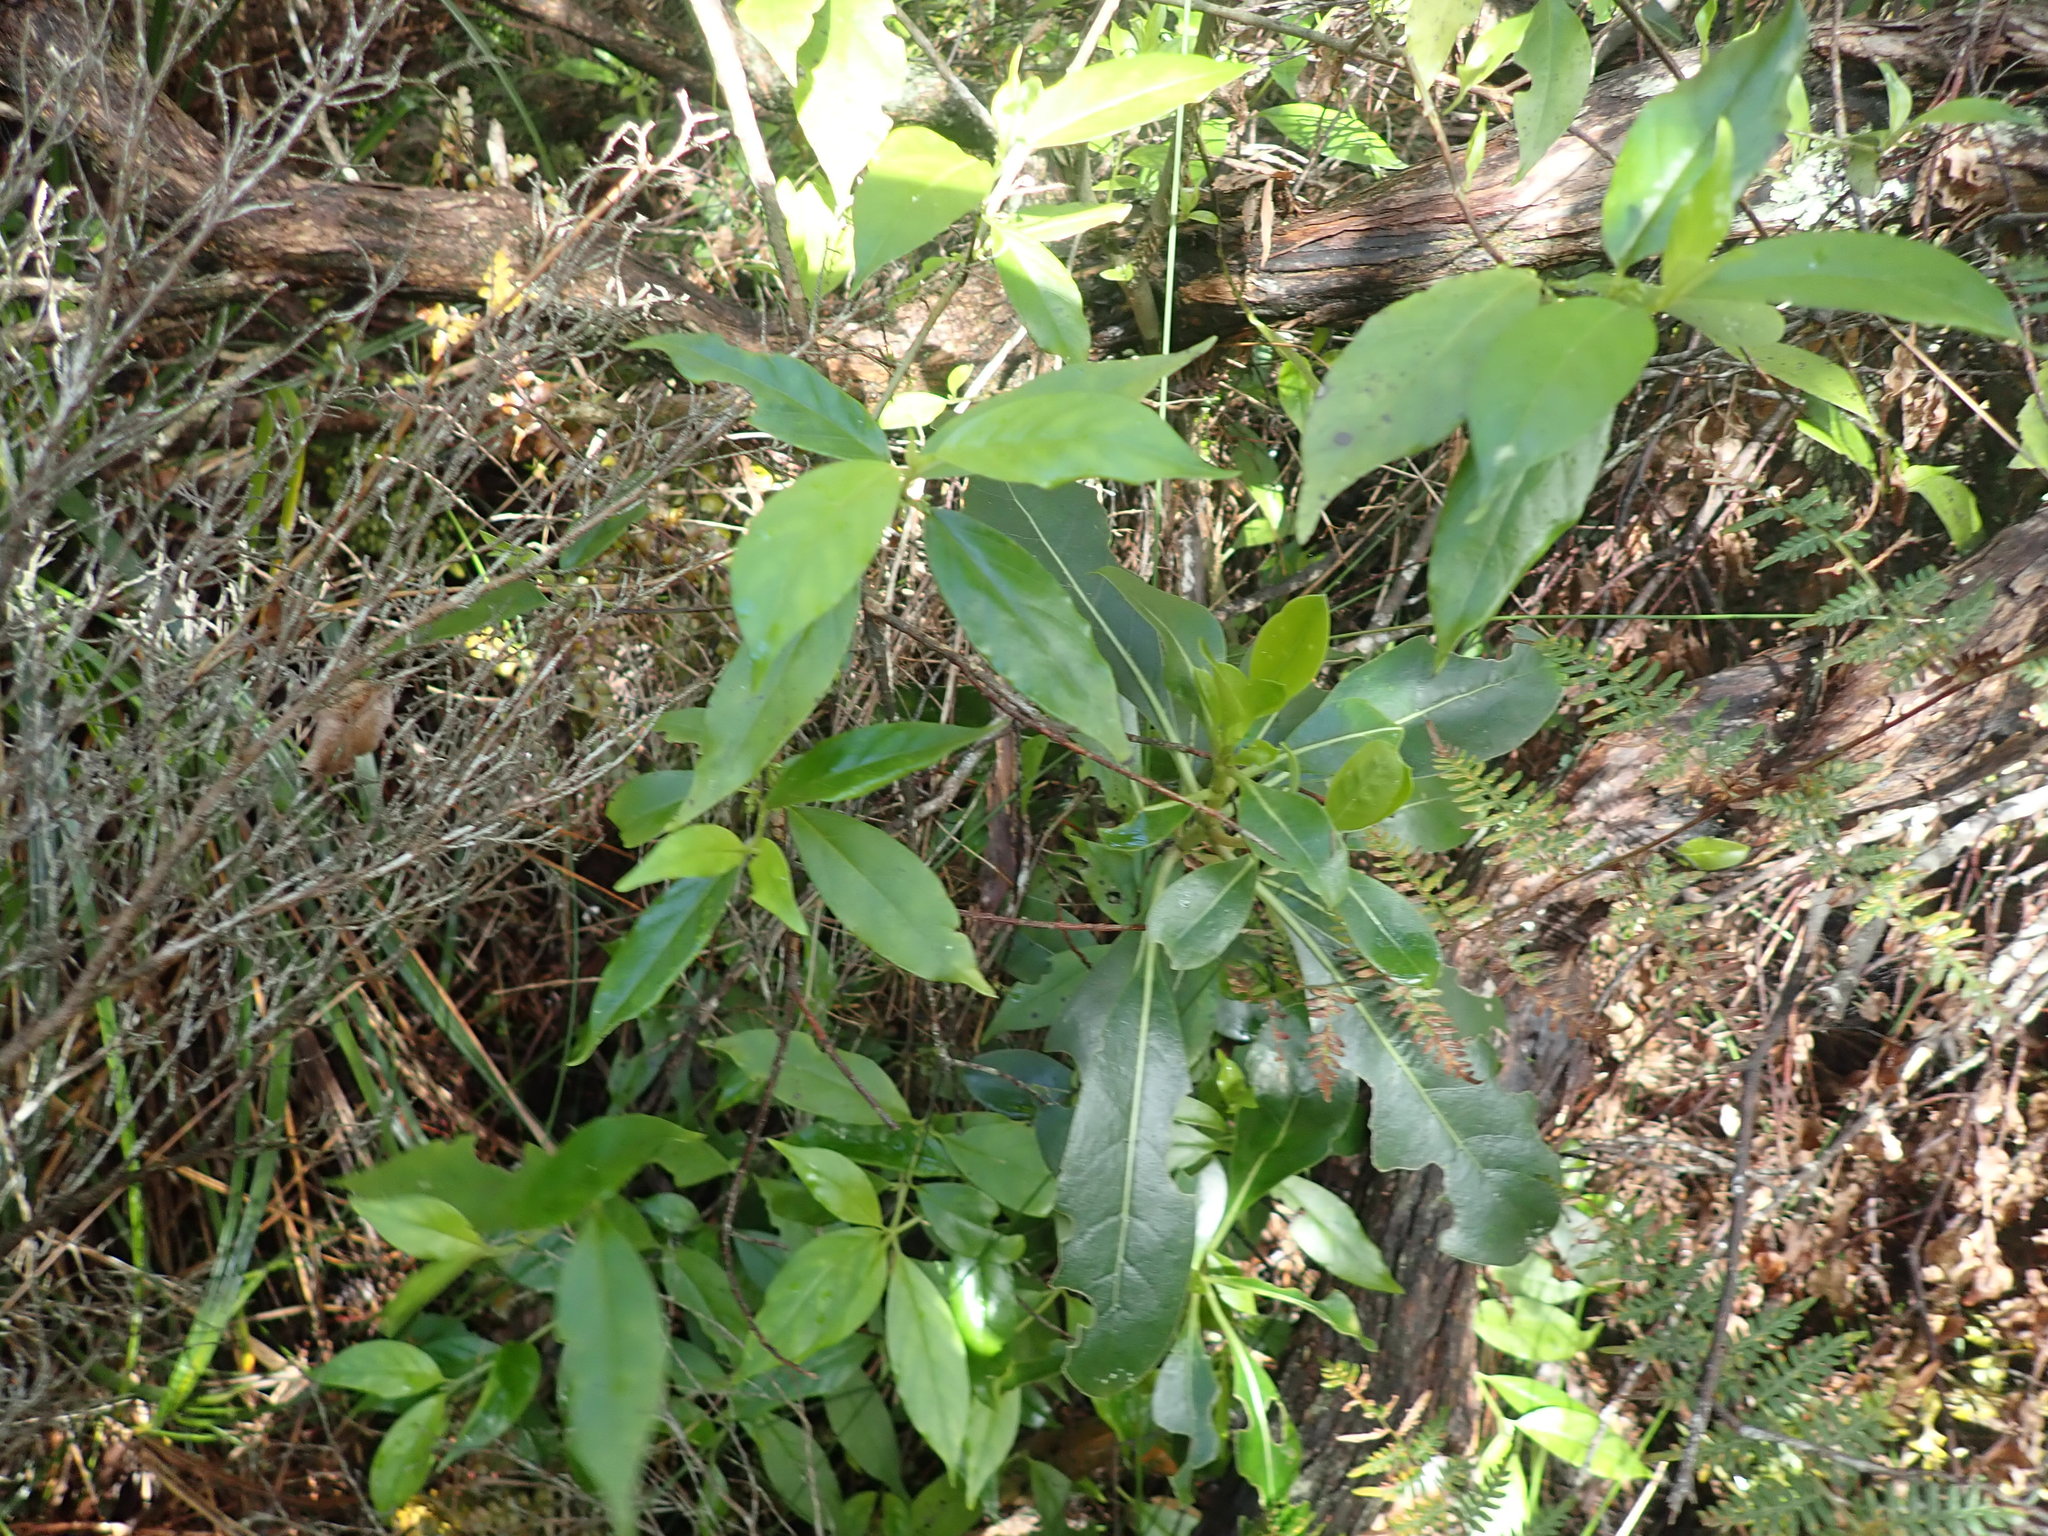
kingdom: Plantae
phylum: Tracheophyta
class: Magnoliopsida
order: Gentianales
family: Loganiaceae
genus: Geniostoma
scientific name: Geniostoma ligustrifolium
